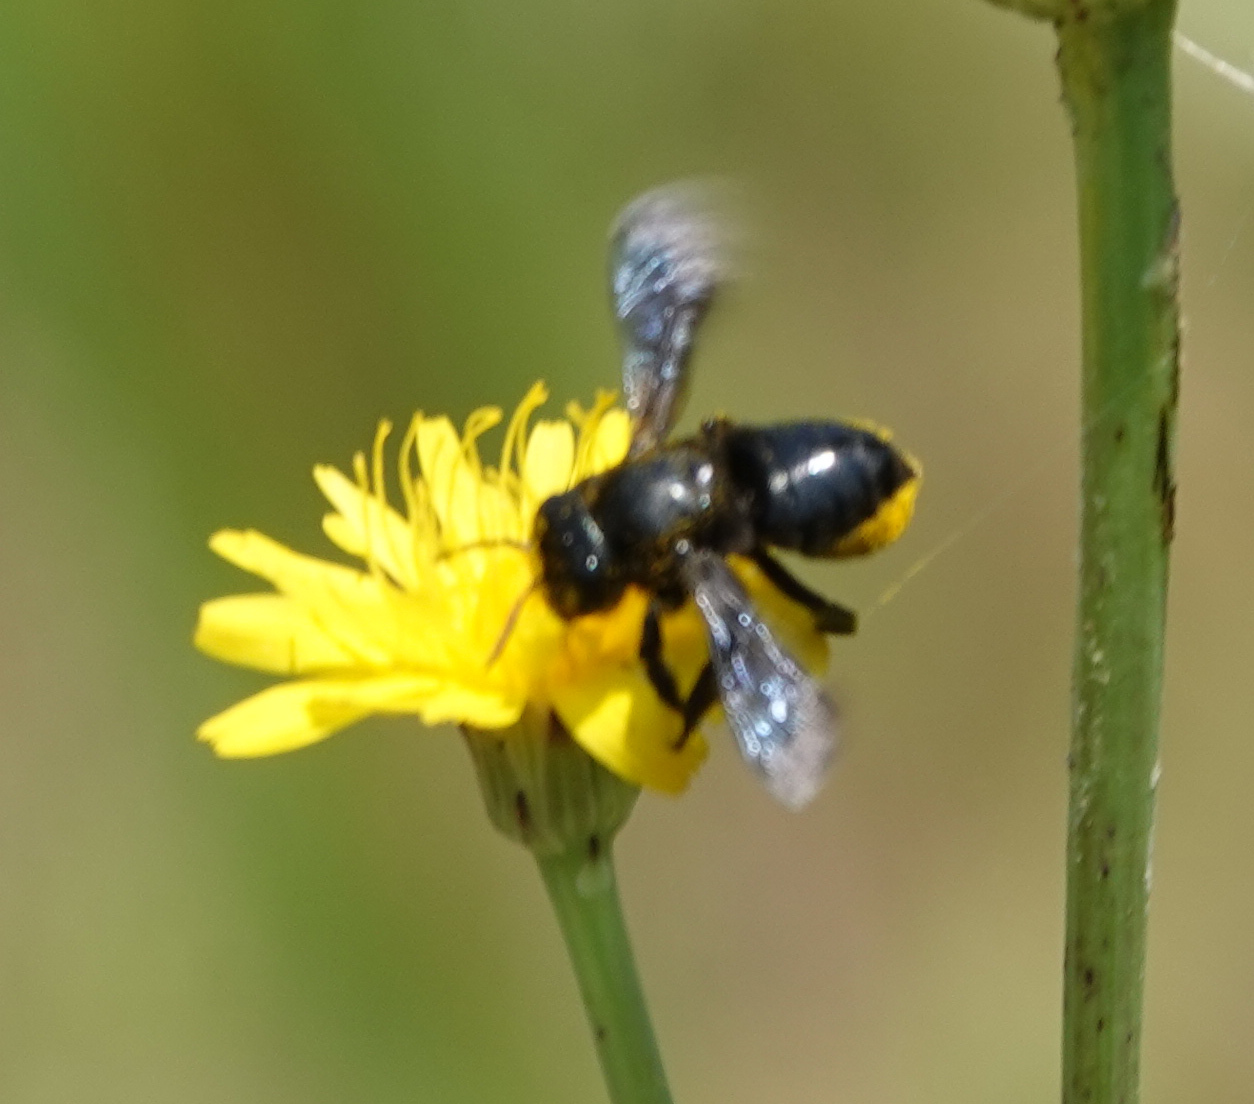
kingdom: Animalia
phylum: Arthropoda
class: Insecta
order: Hymenoptera
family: Megachilidae
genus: Megachile
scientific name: Megachile xylocopoides
